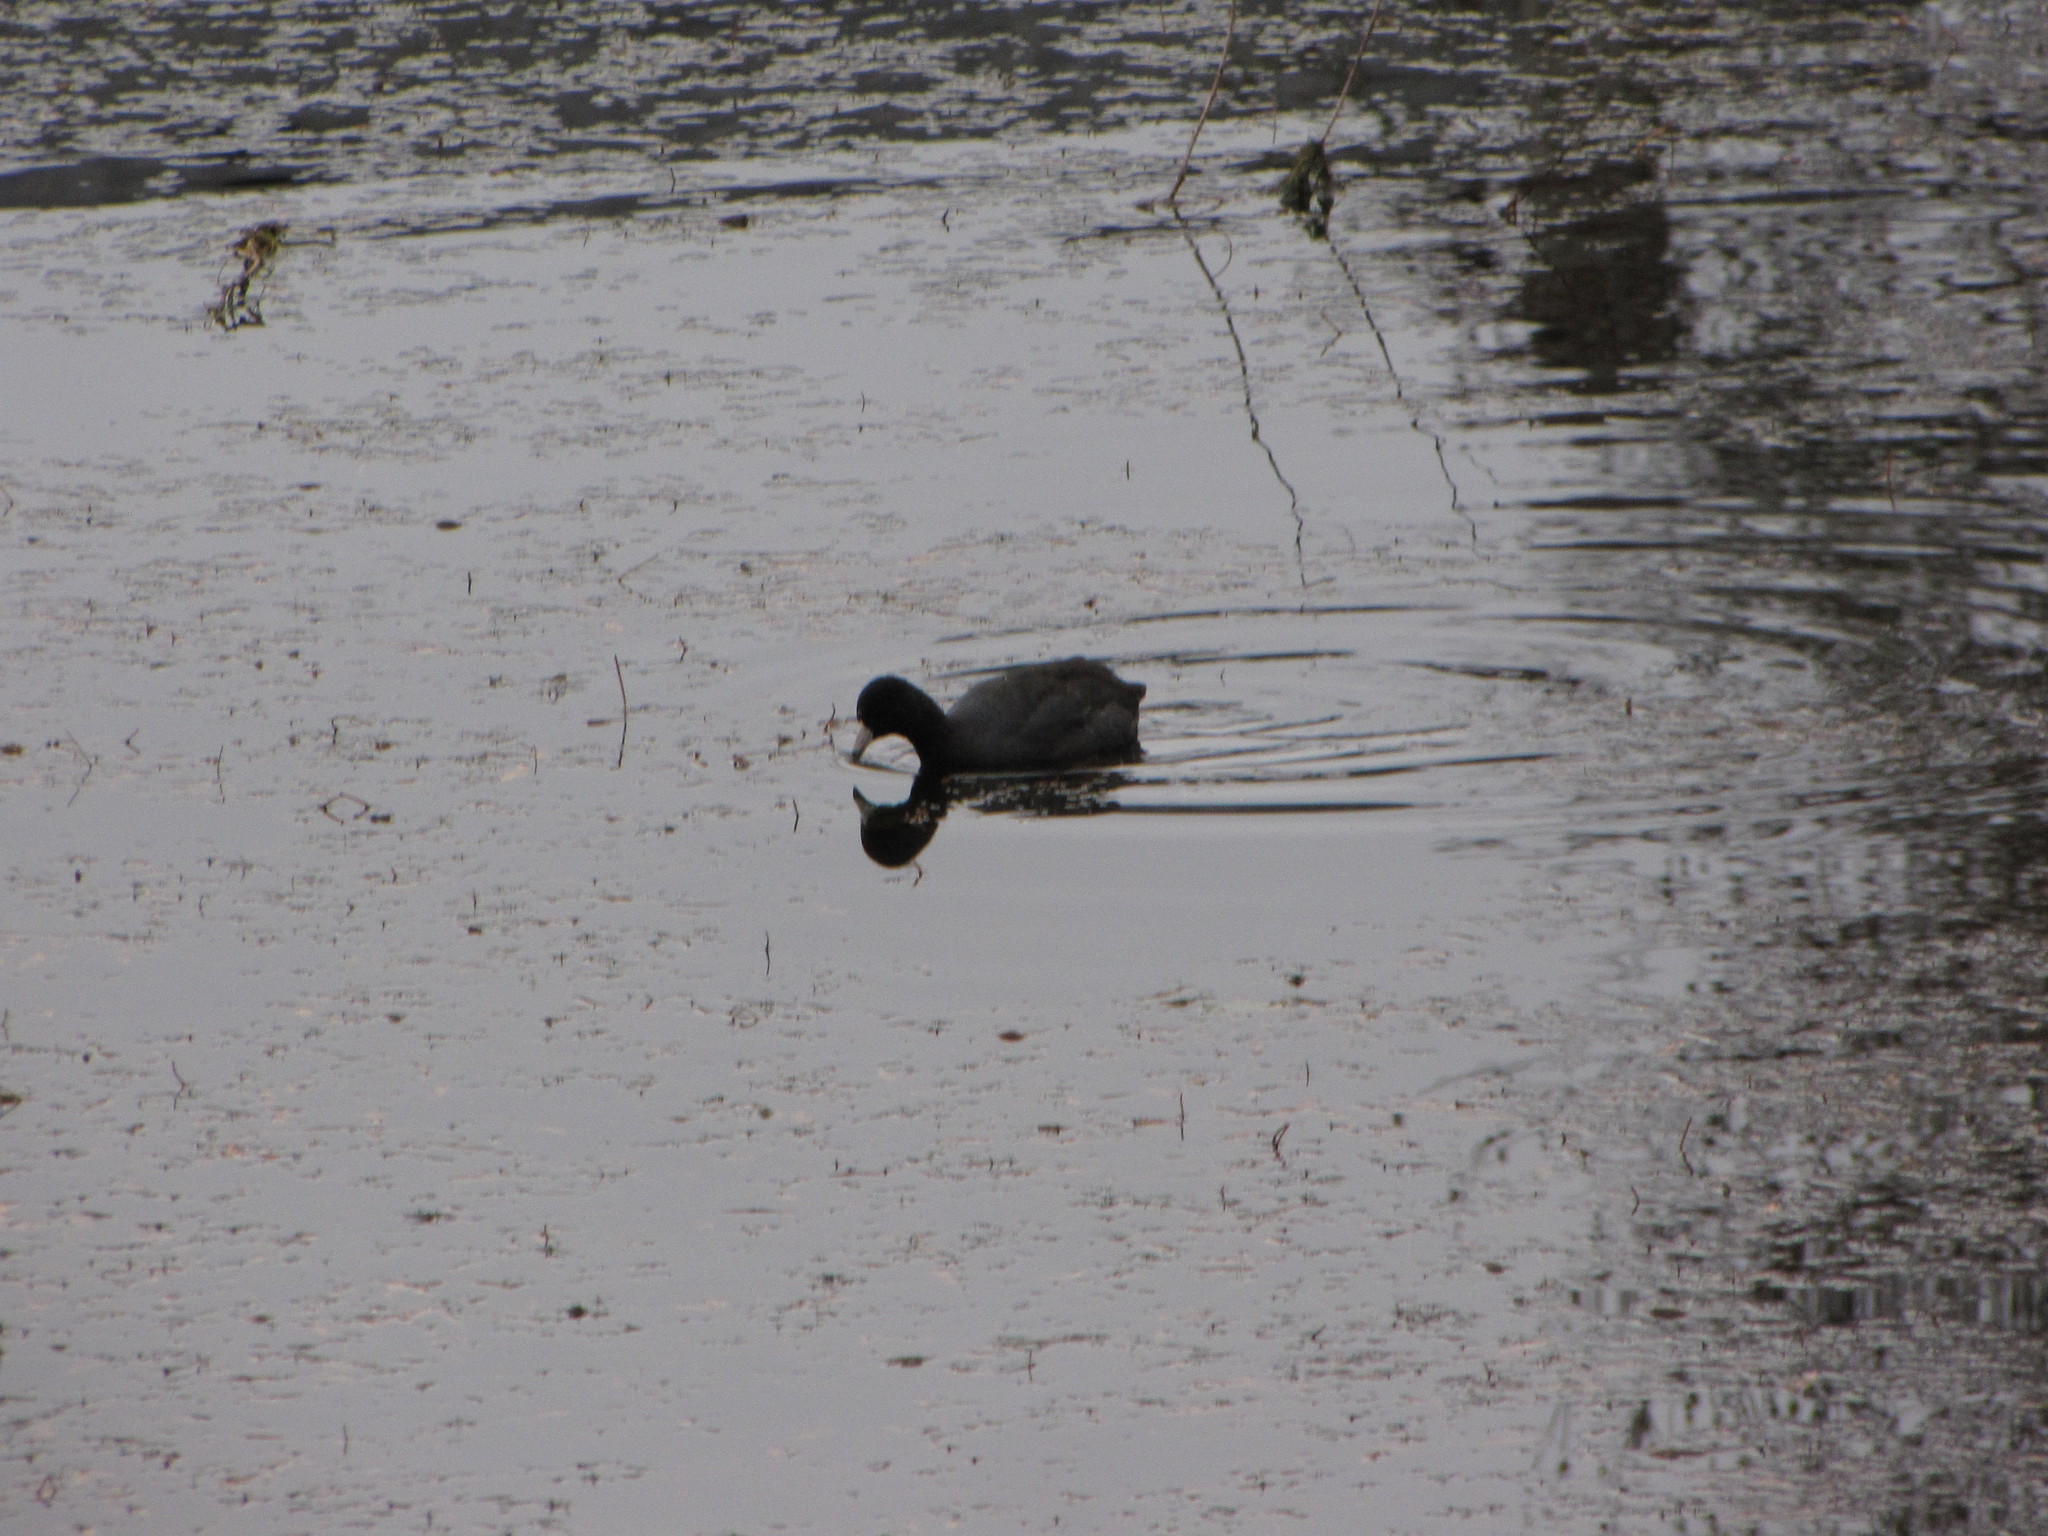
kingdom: Animalia
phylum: Chordata
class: Aves
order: Gruiformes
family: Rallidae
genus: Fulica
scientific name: Fulica americana
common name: American coot
